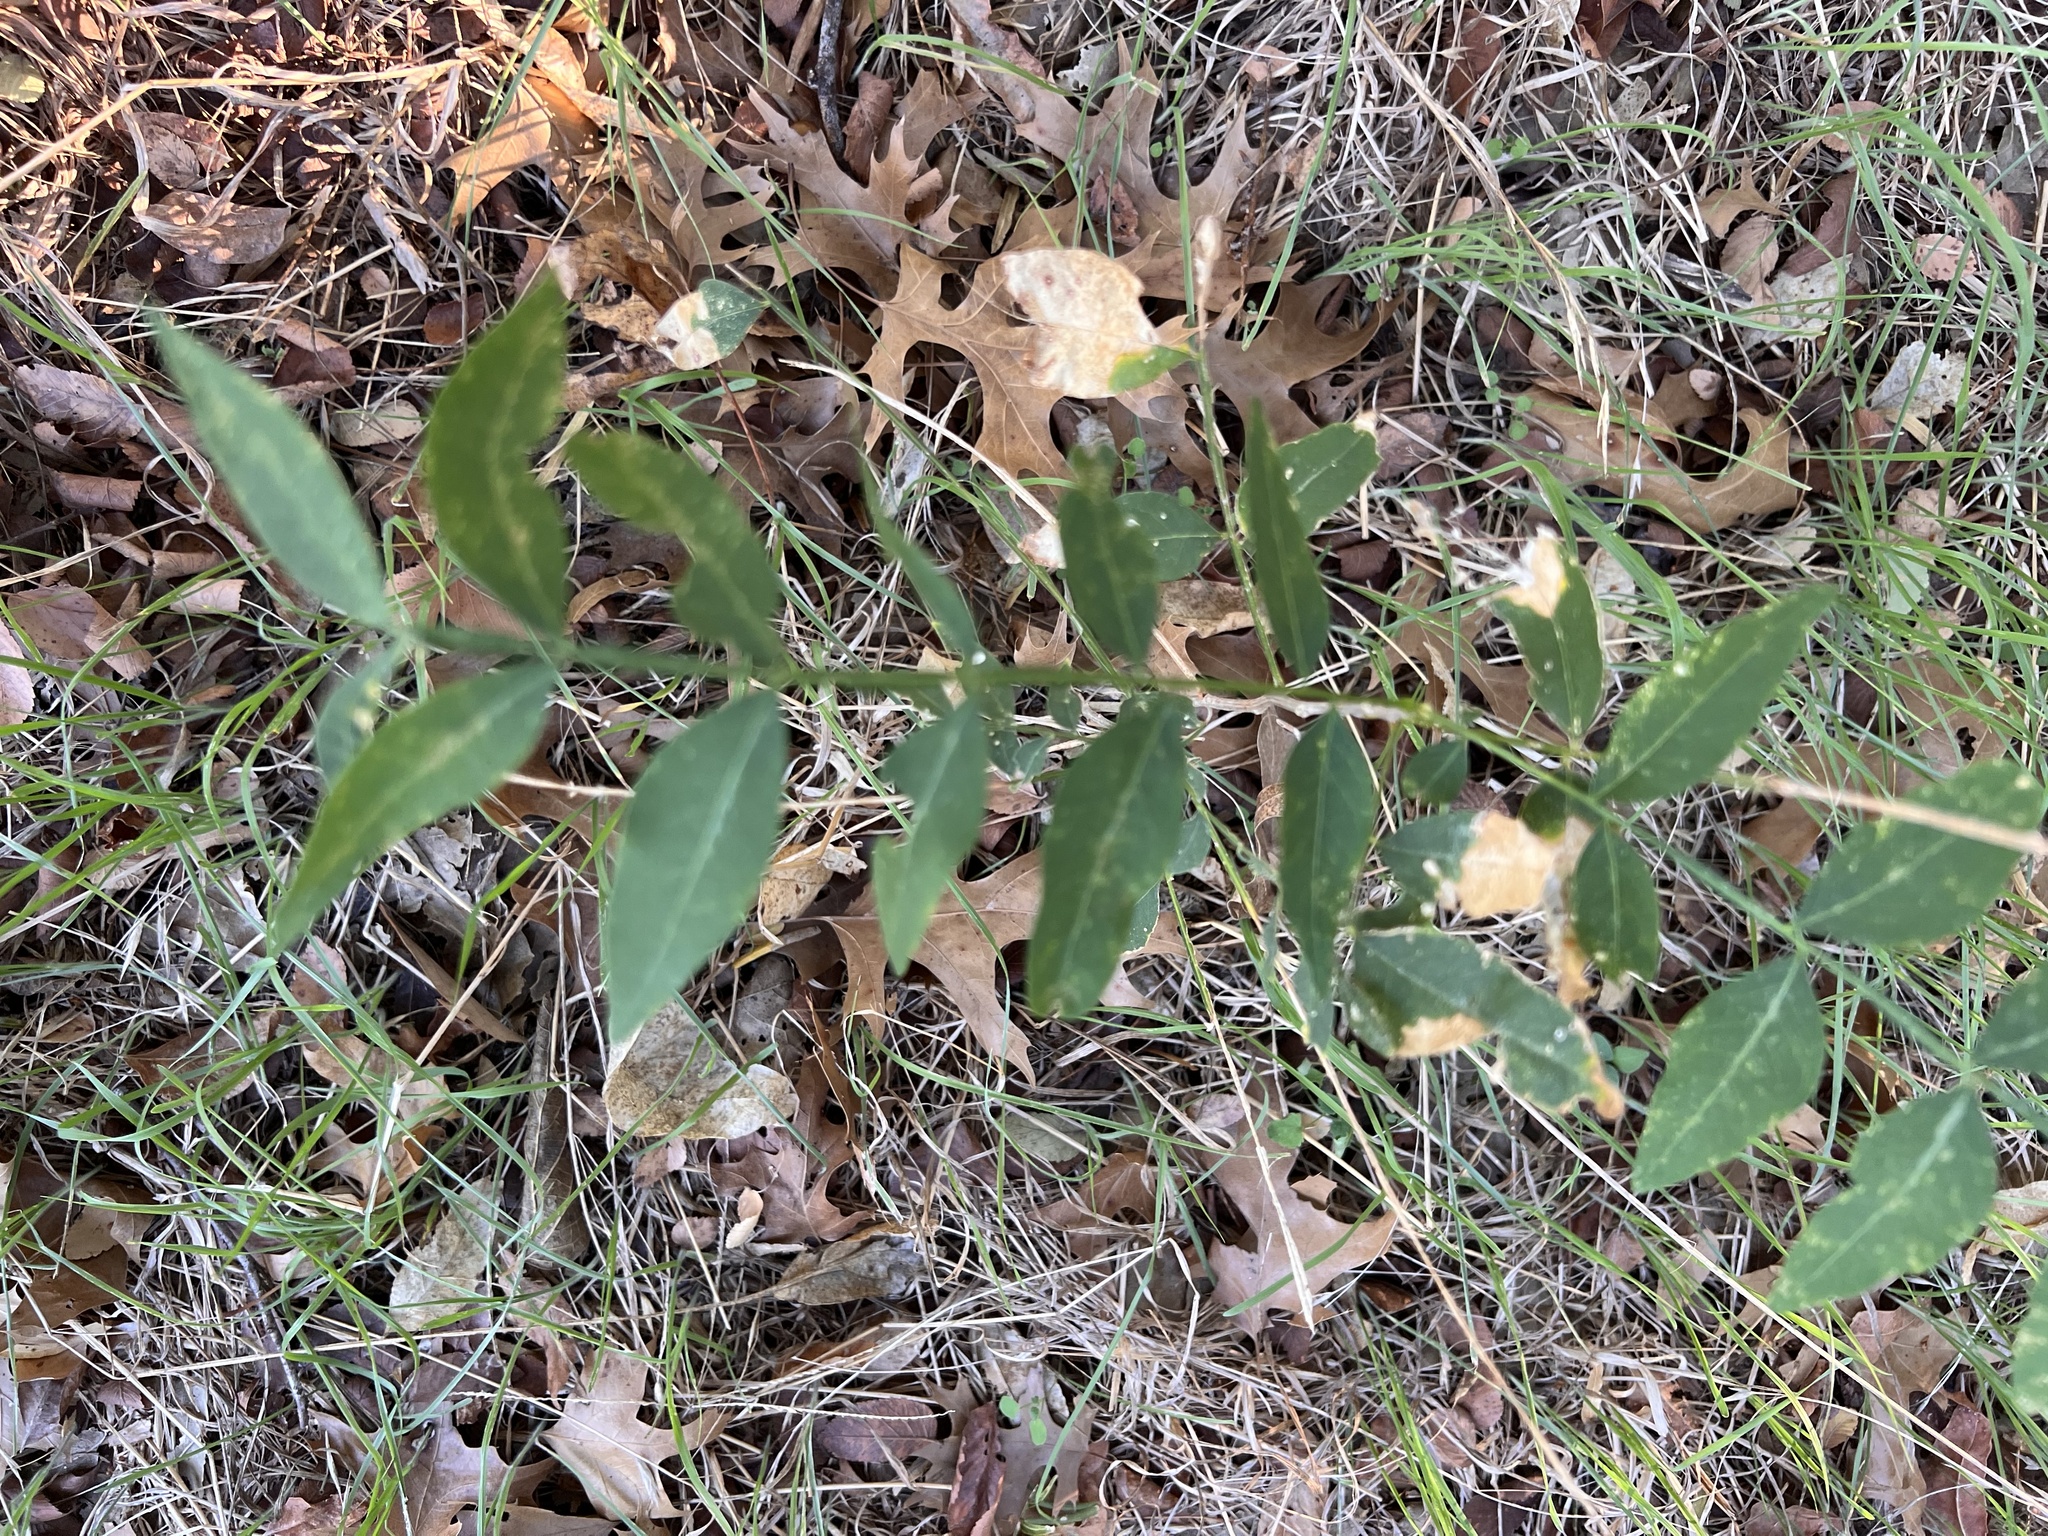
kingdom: Plantae
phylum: Tracheophyta
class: Magnoliopsida
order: Sapindales
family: Sapindaceae
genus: Sapindus
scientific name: Sapindus drummondii
